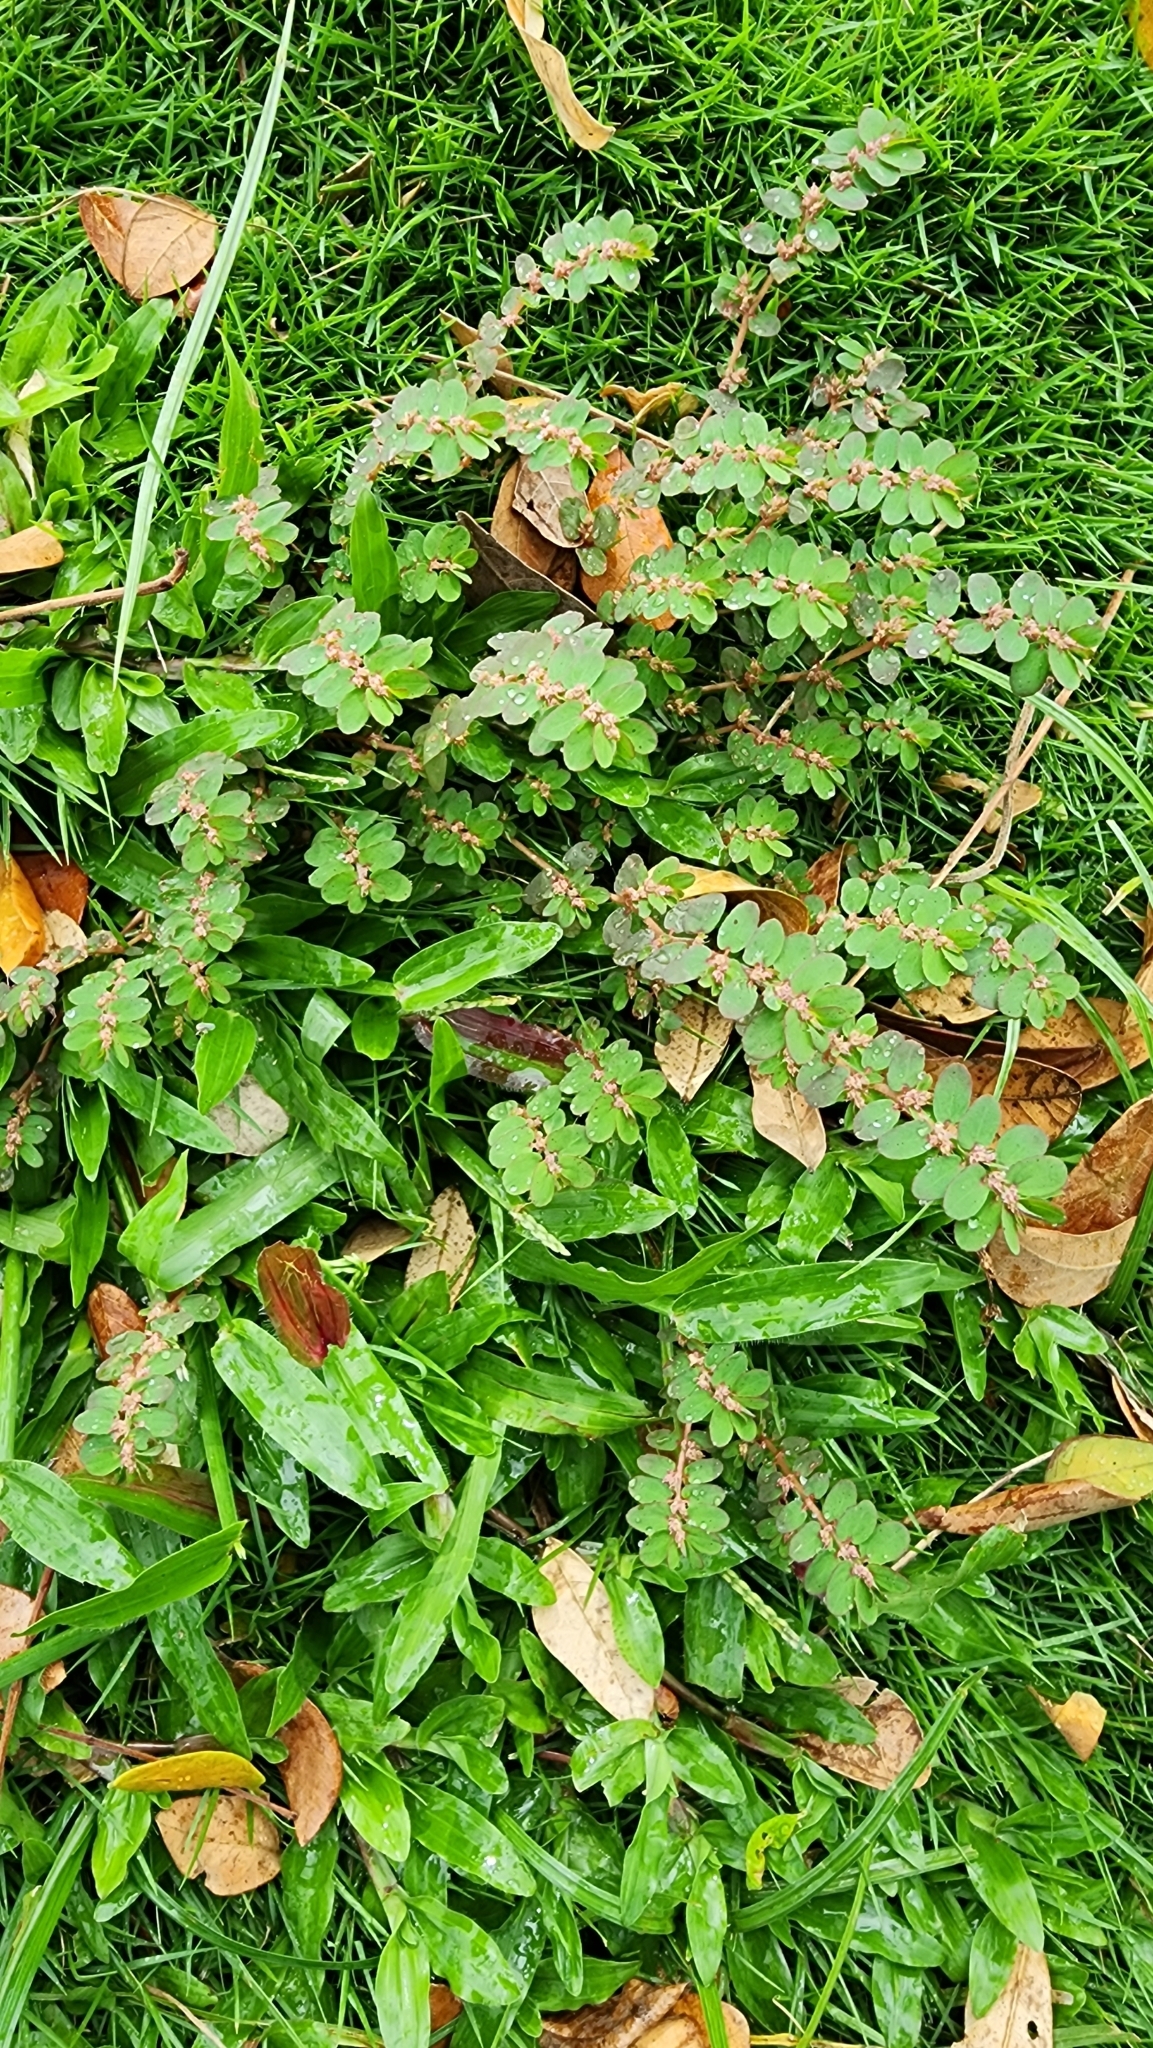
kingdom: Plantae
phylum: Tracheophyta
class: Magnoliopsida
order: Malpighiales
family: Euphorbiaceae
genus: Euphorbia
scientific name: Euphorbia thymifolia
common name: Gulf sandmat
